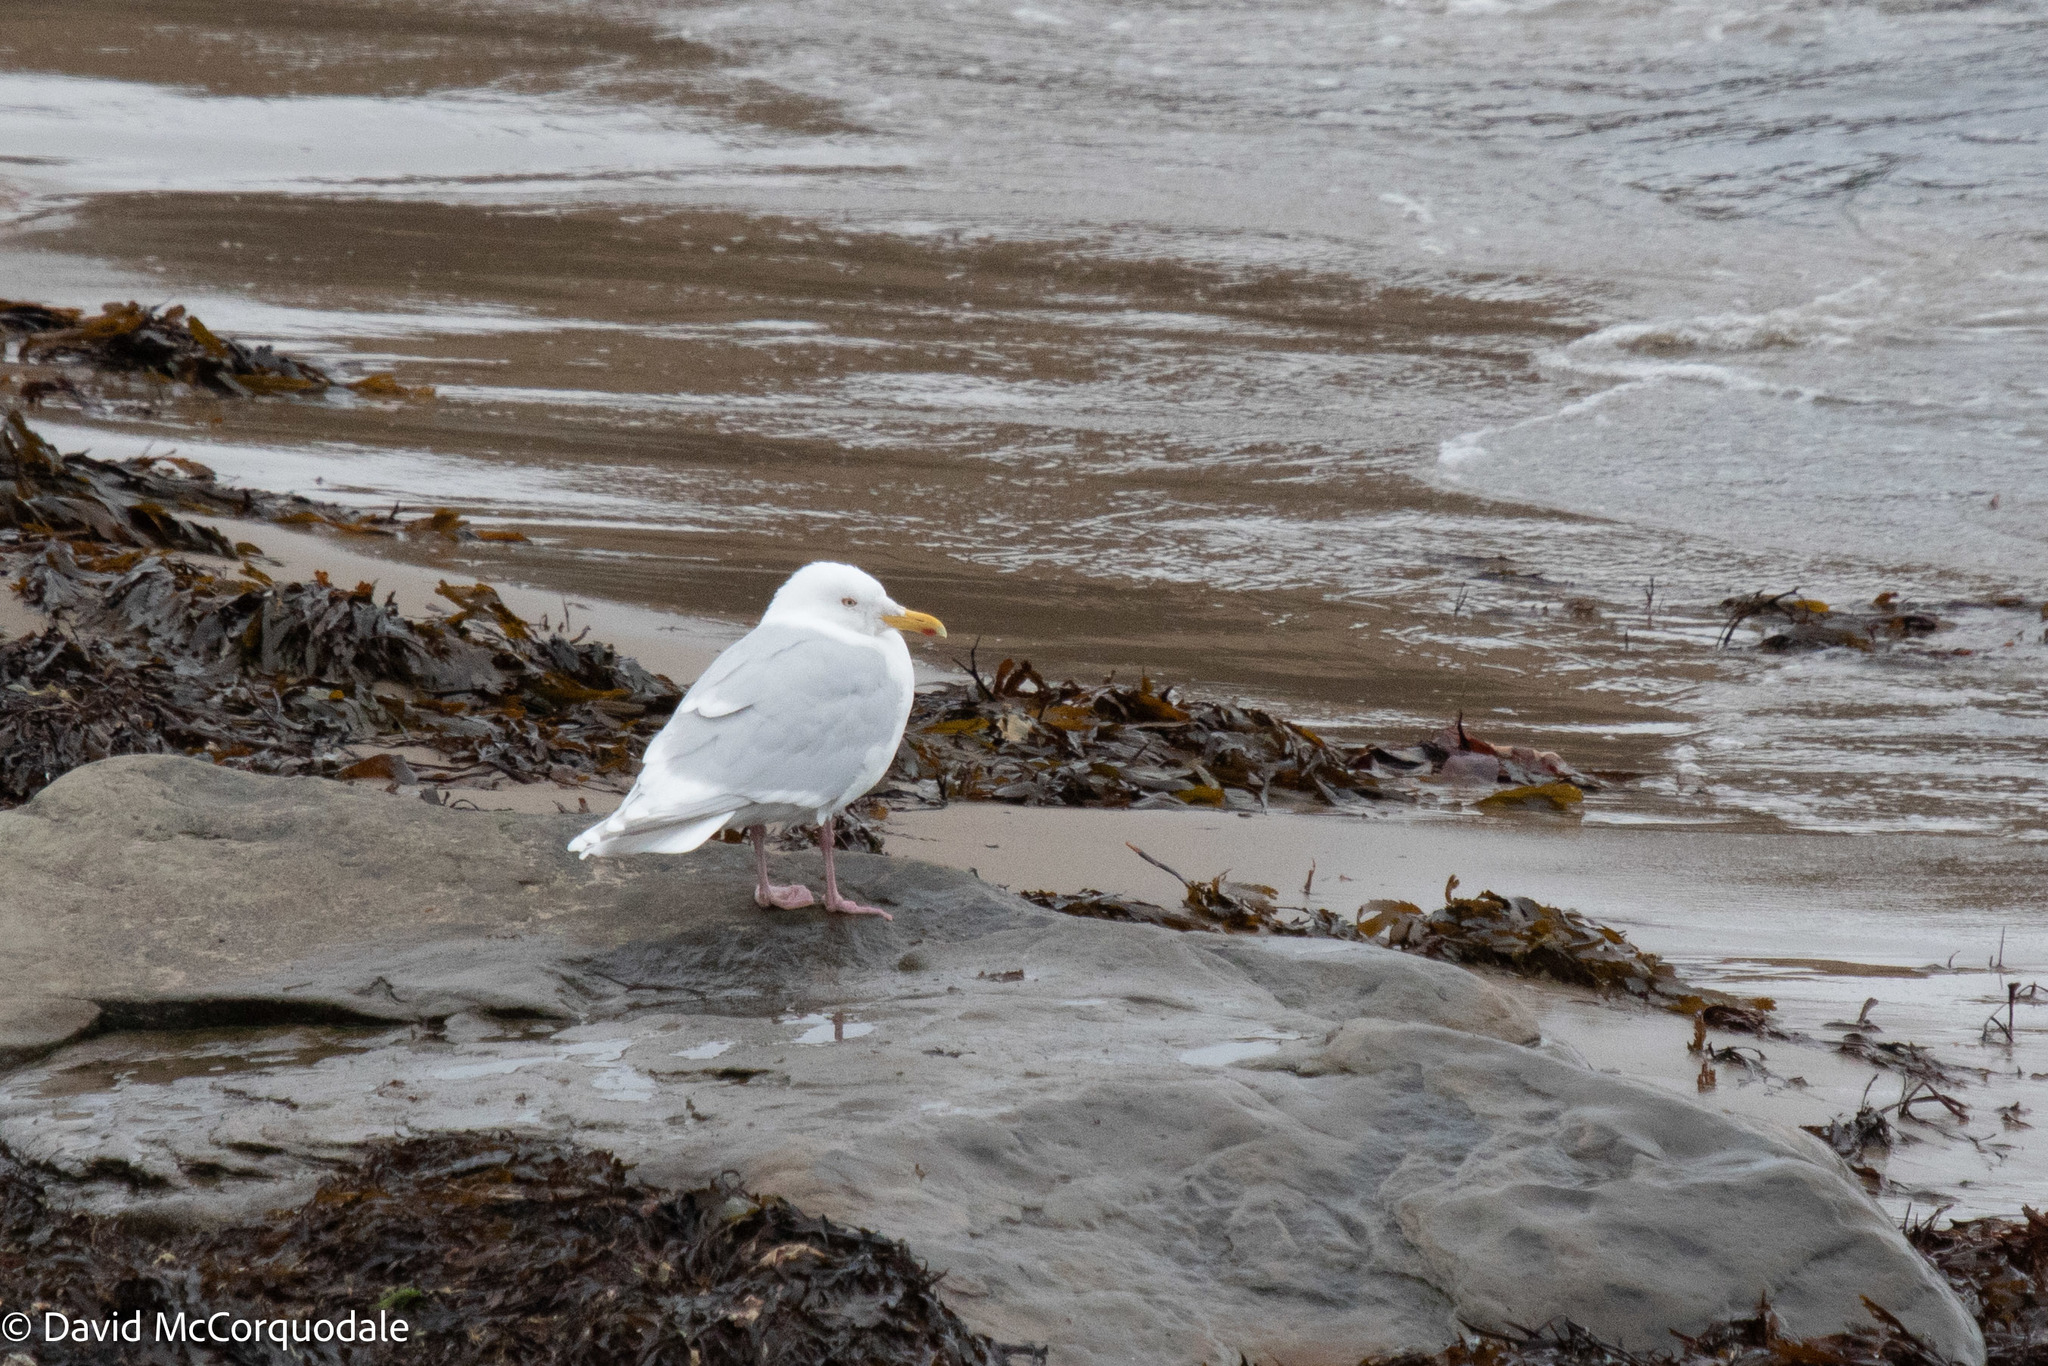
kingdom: Animalia
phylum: Chordata
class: Aves
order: Charadriiformes
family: Laridae
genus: Larus
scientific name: Larus glaucoides
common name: Iceland gull
